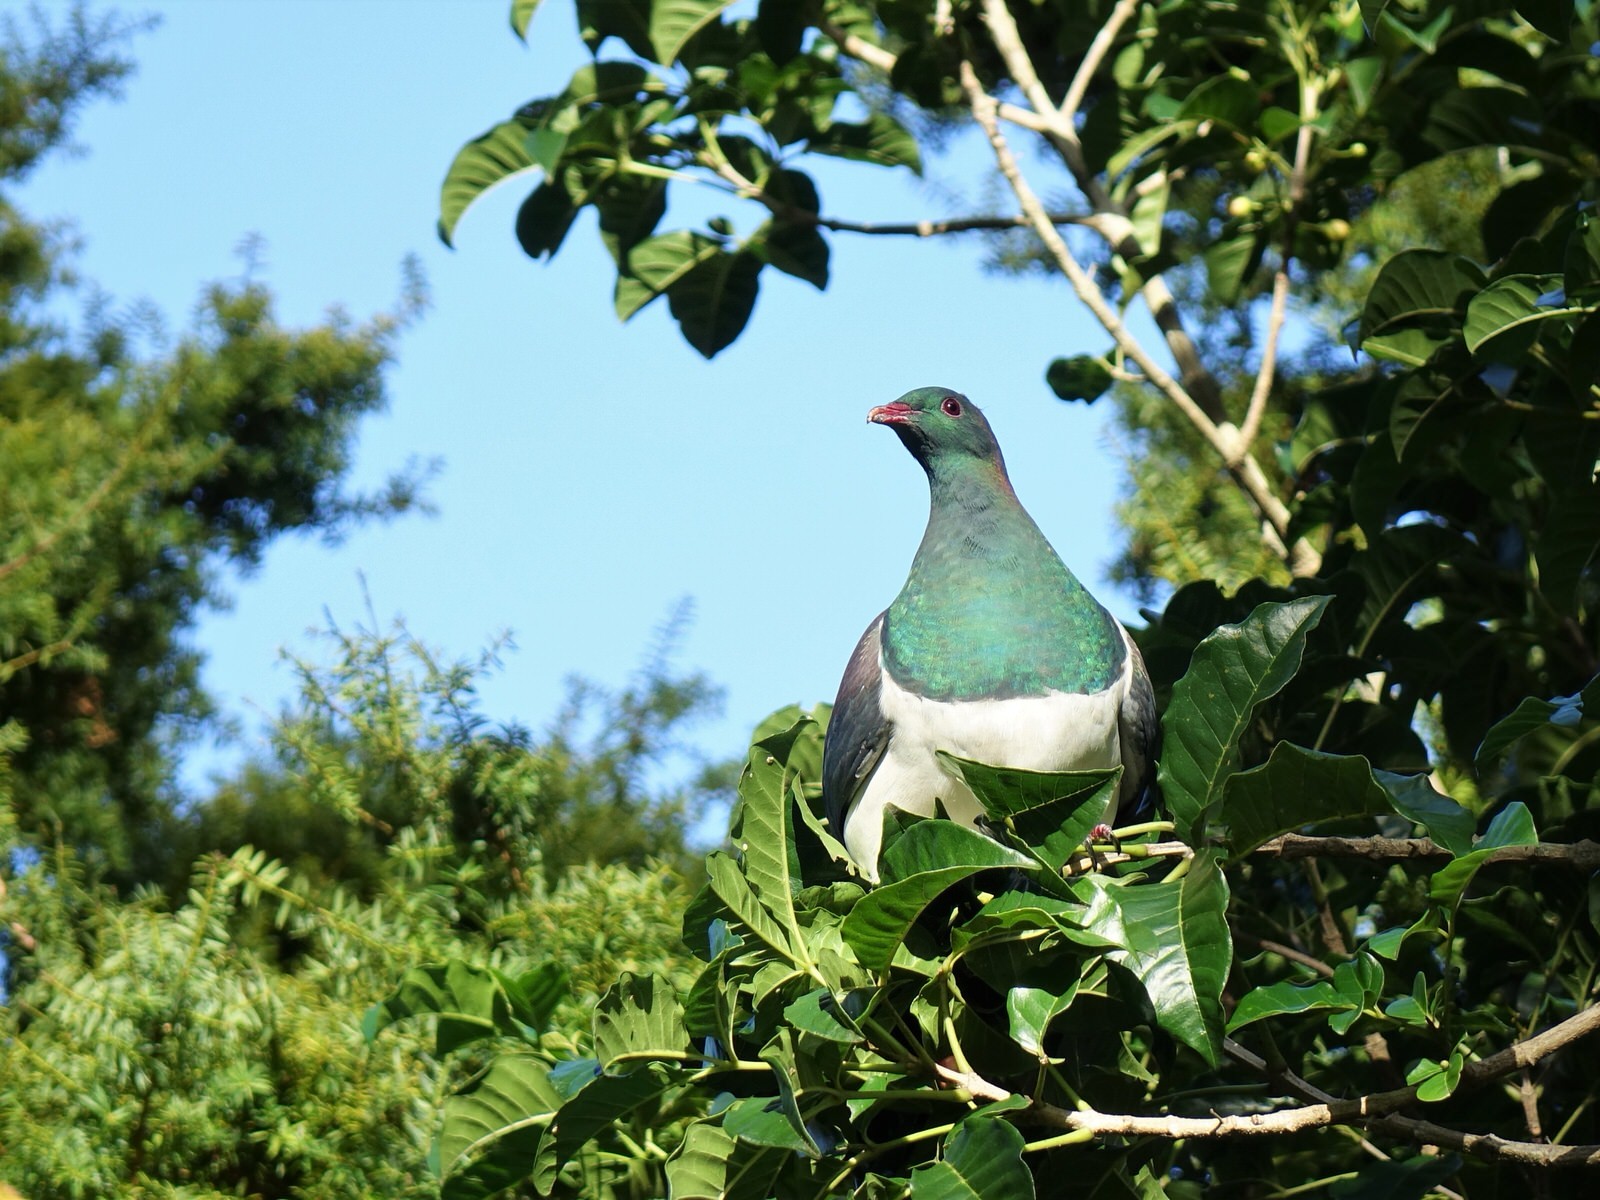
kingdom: Animalia
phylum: Chordata
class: Aves
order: Columbiformes
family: Columbidae
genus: Hemiphaga
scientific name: Hemiphaga novaeseelandiae
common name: New zealand pigeon
